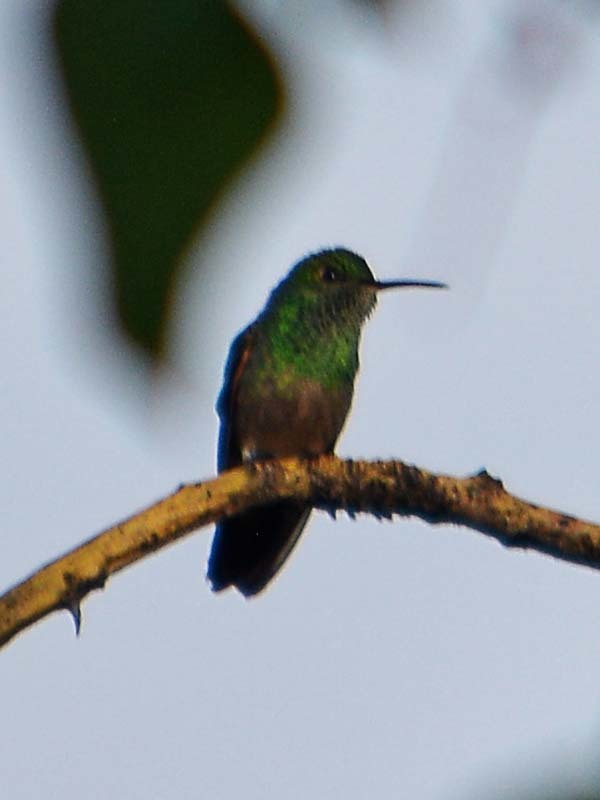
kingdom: Animalia
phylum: Chordata
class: Aves
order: Apodiformes
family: Trochilidae
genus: Saucerottia
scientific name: Saucerottia beryllina
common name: Berylline hummingbird
